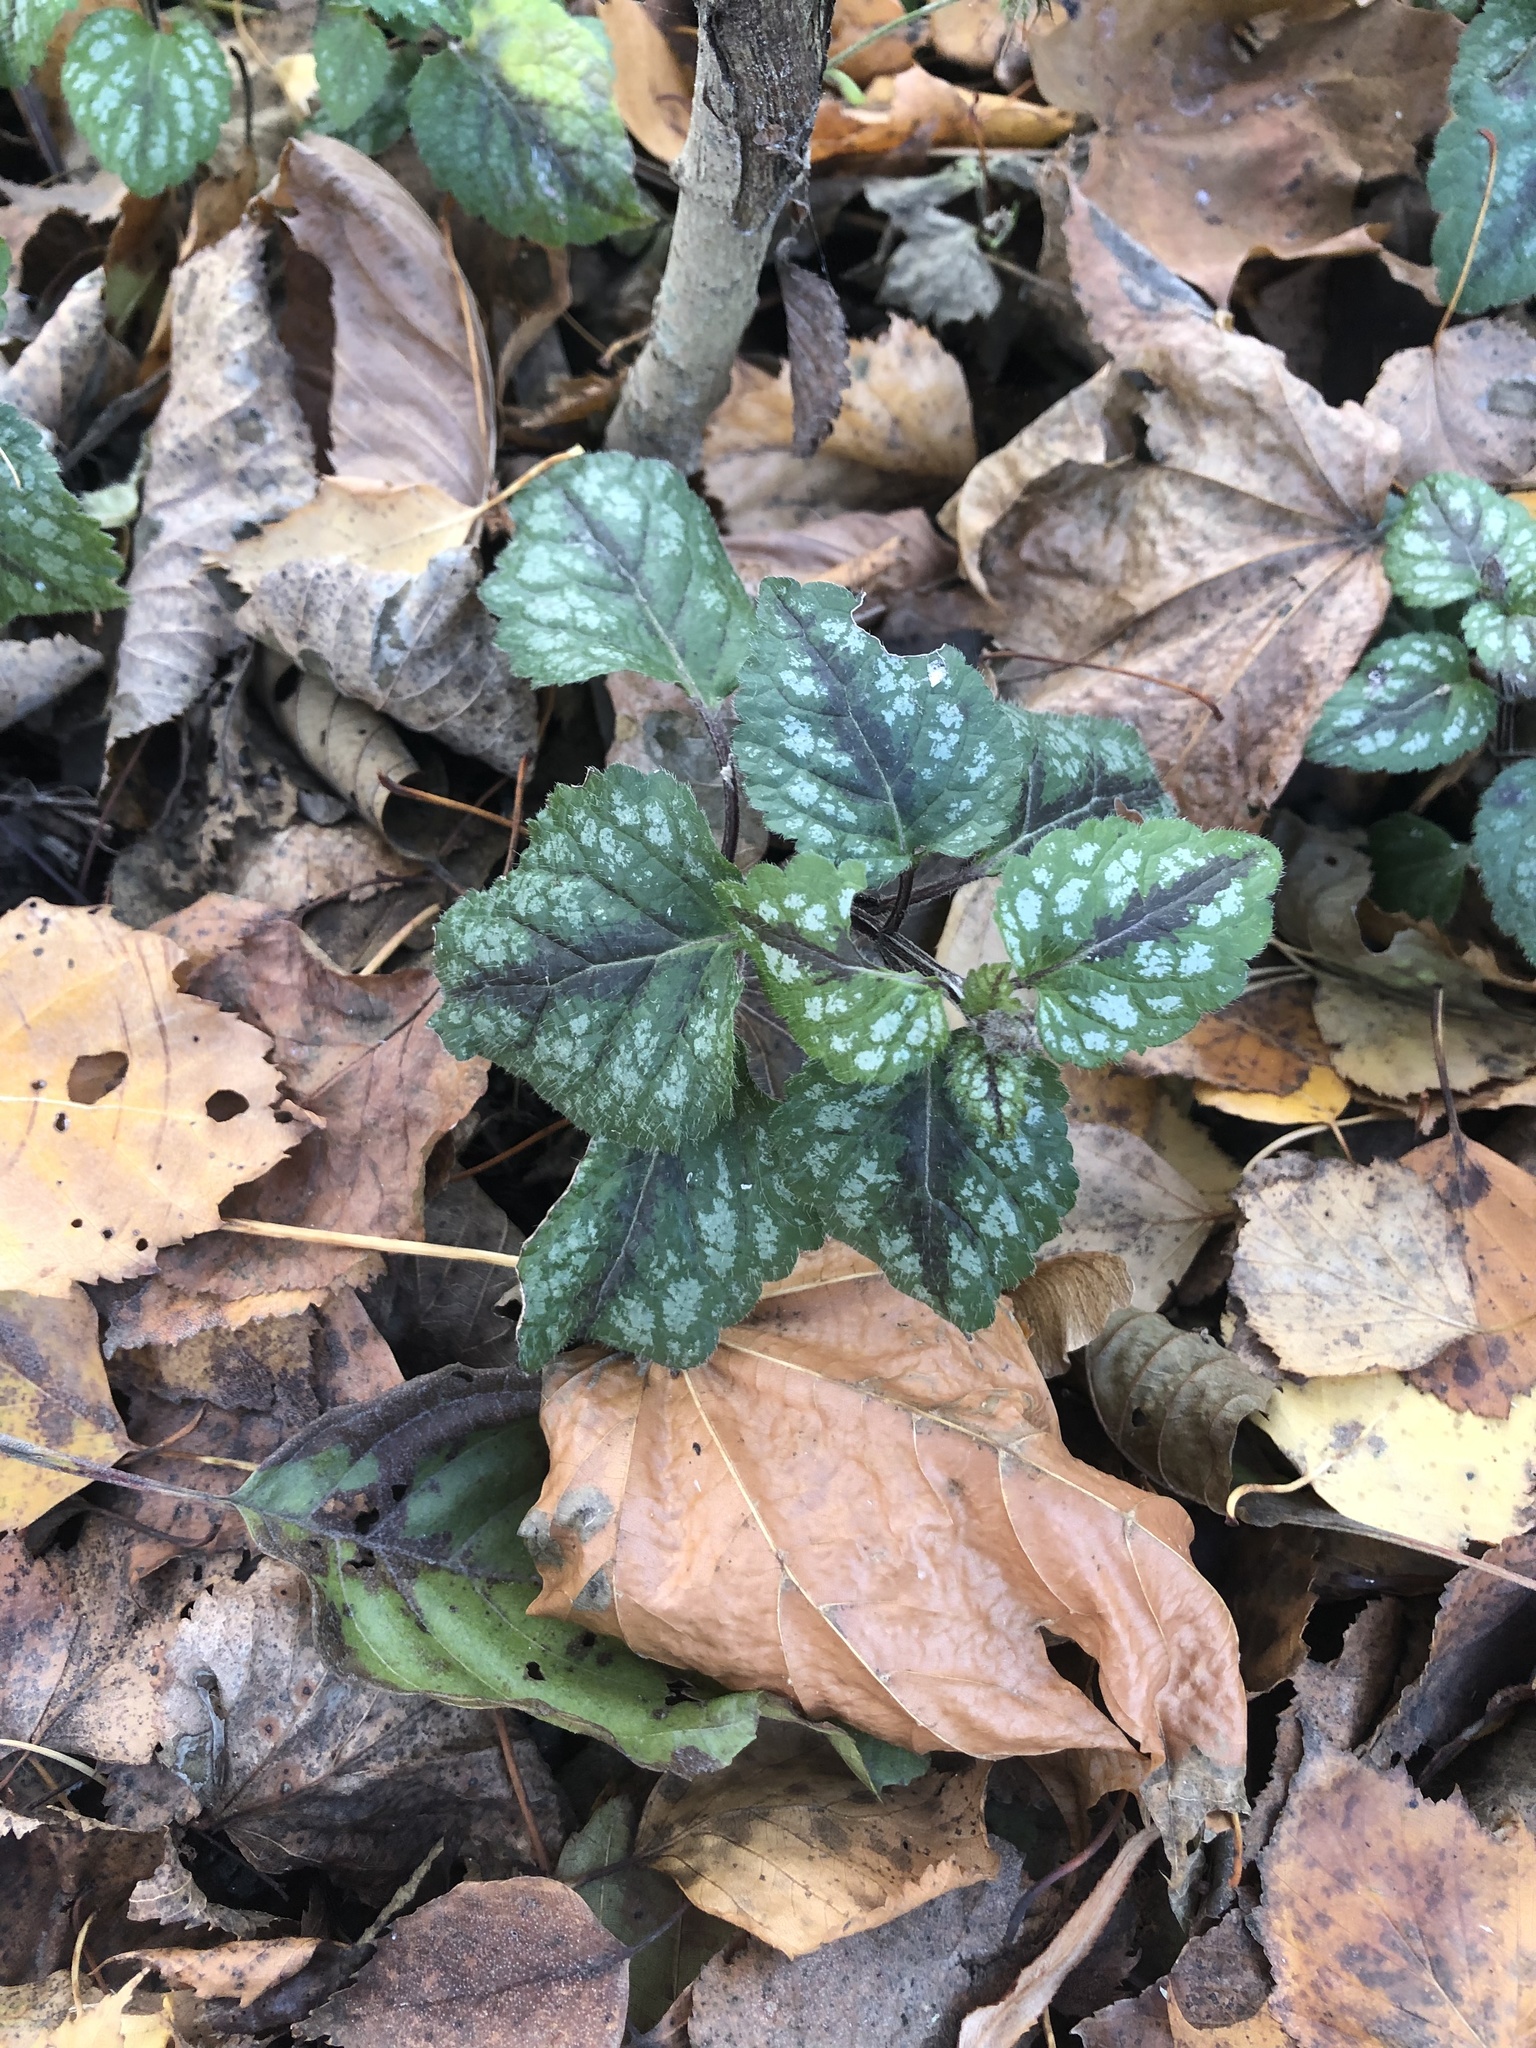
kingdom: Plantae
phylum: Tracheophyta
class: Magnoliopsida
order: Lamiales
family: Lamiaceae
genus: Lamium
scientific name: Lamium galeobdolon
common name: Yellow archangel
